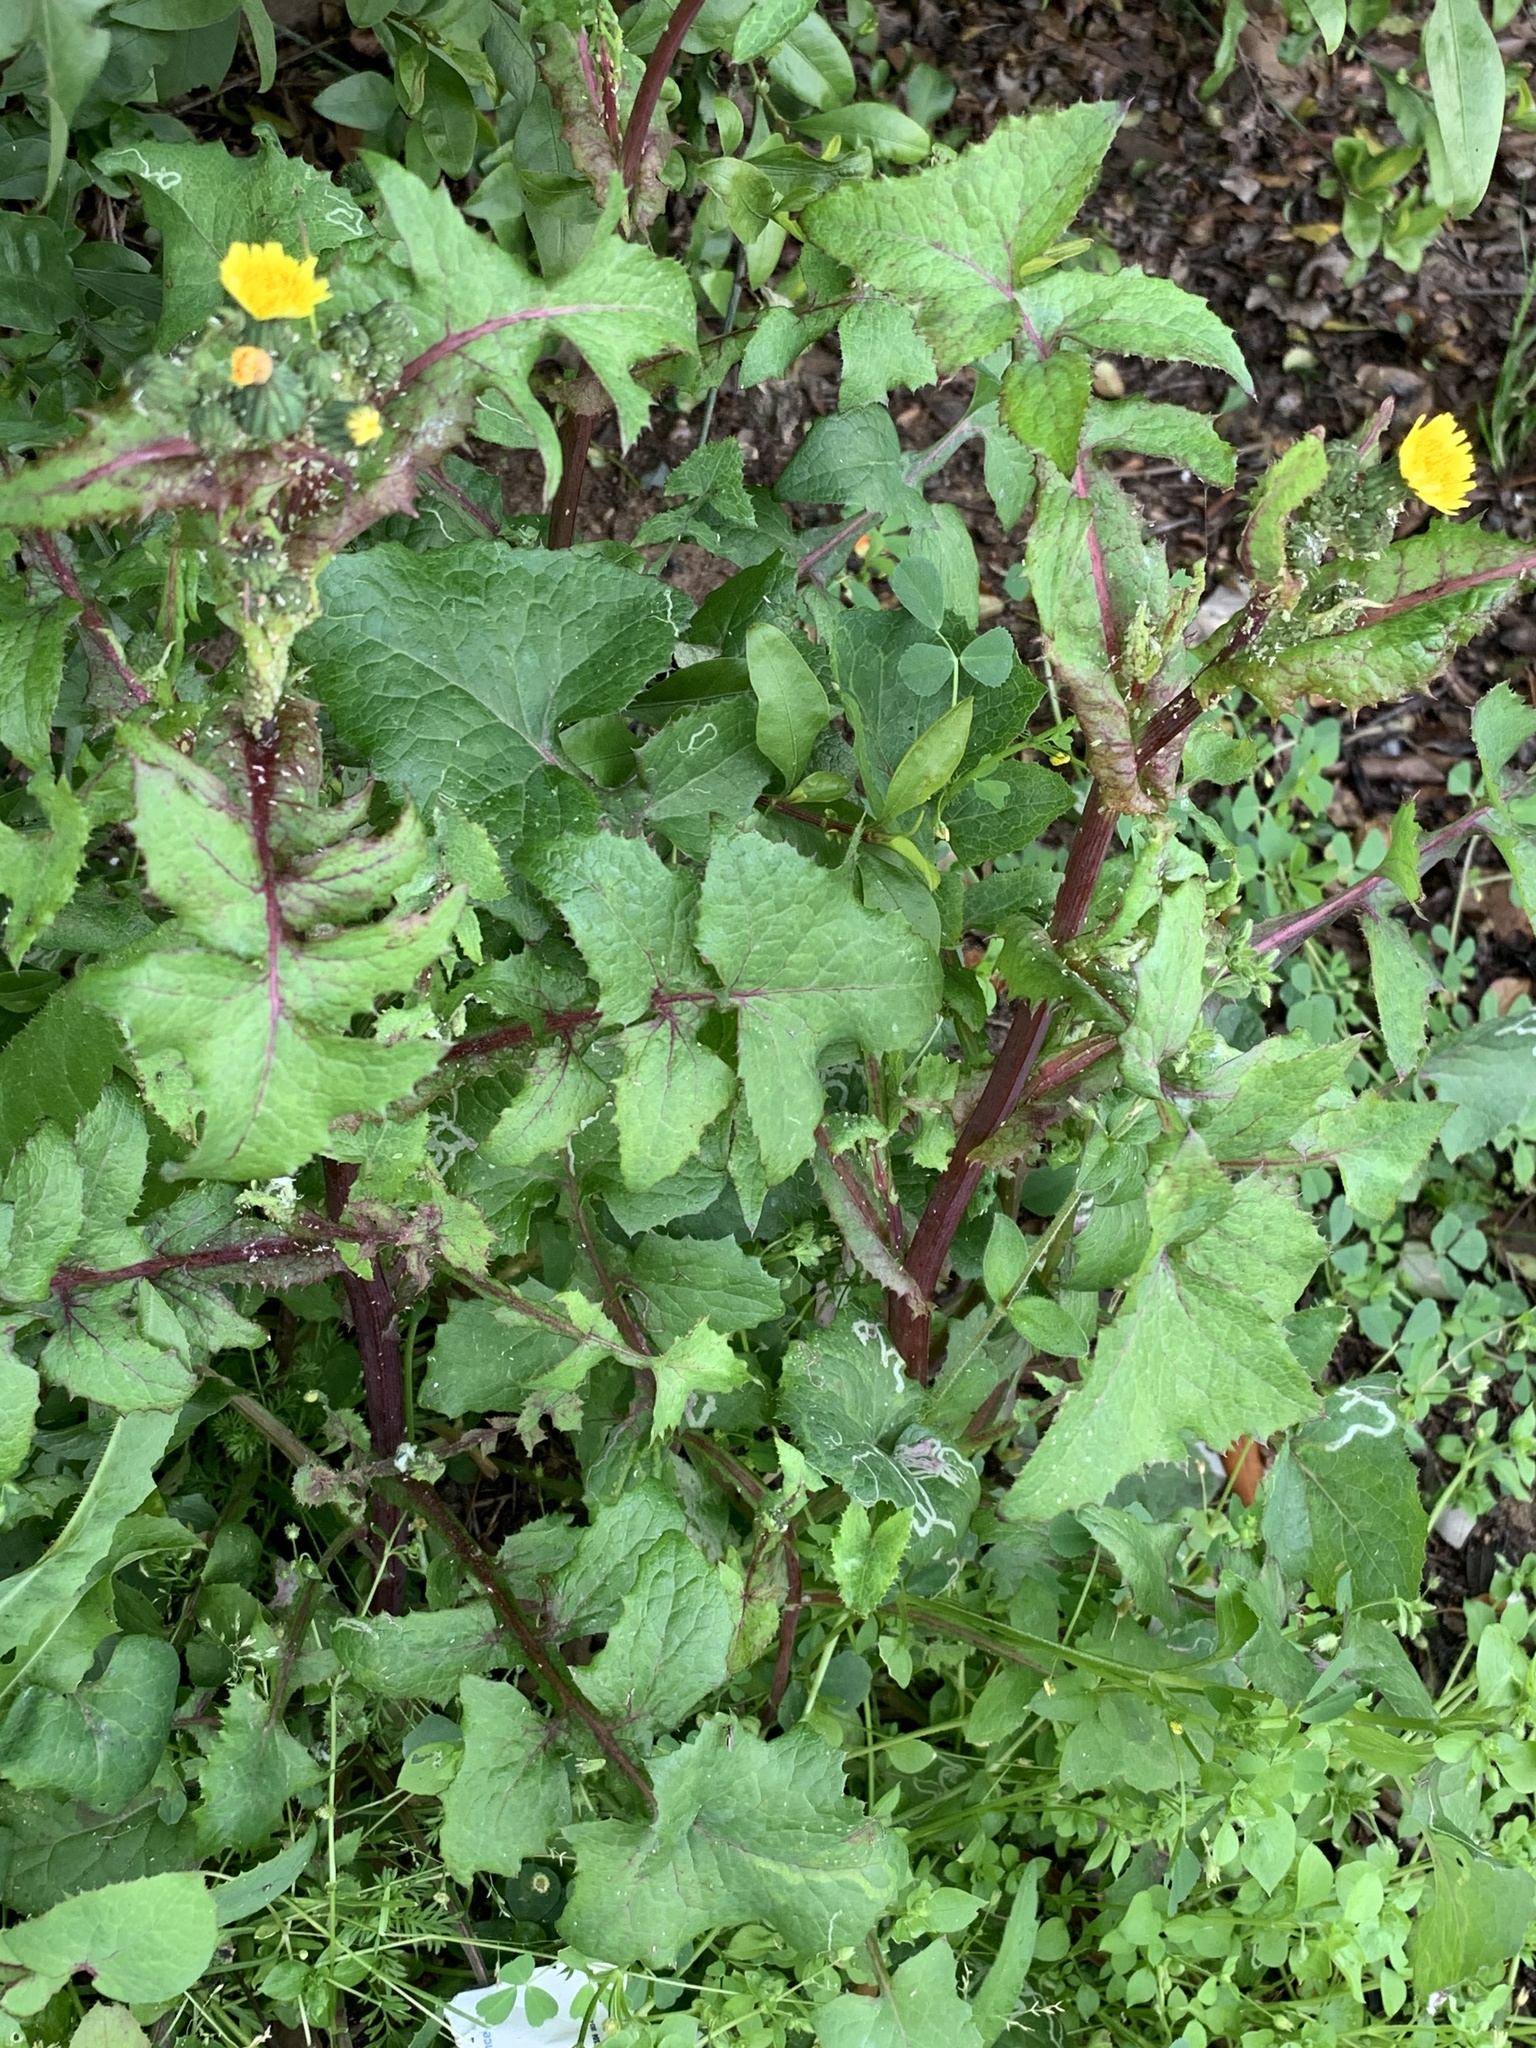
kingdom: Plantae
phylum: Tracheophyta
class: Magnoliopsida
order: Asterales
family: Asteraceae
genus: Sonchus
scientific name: Sonchus oleraceus
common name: Common sowthistle
